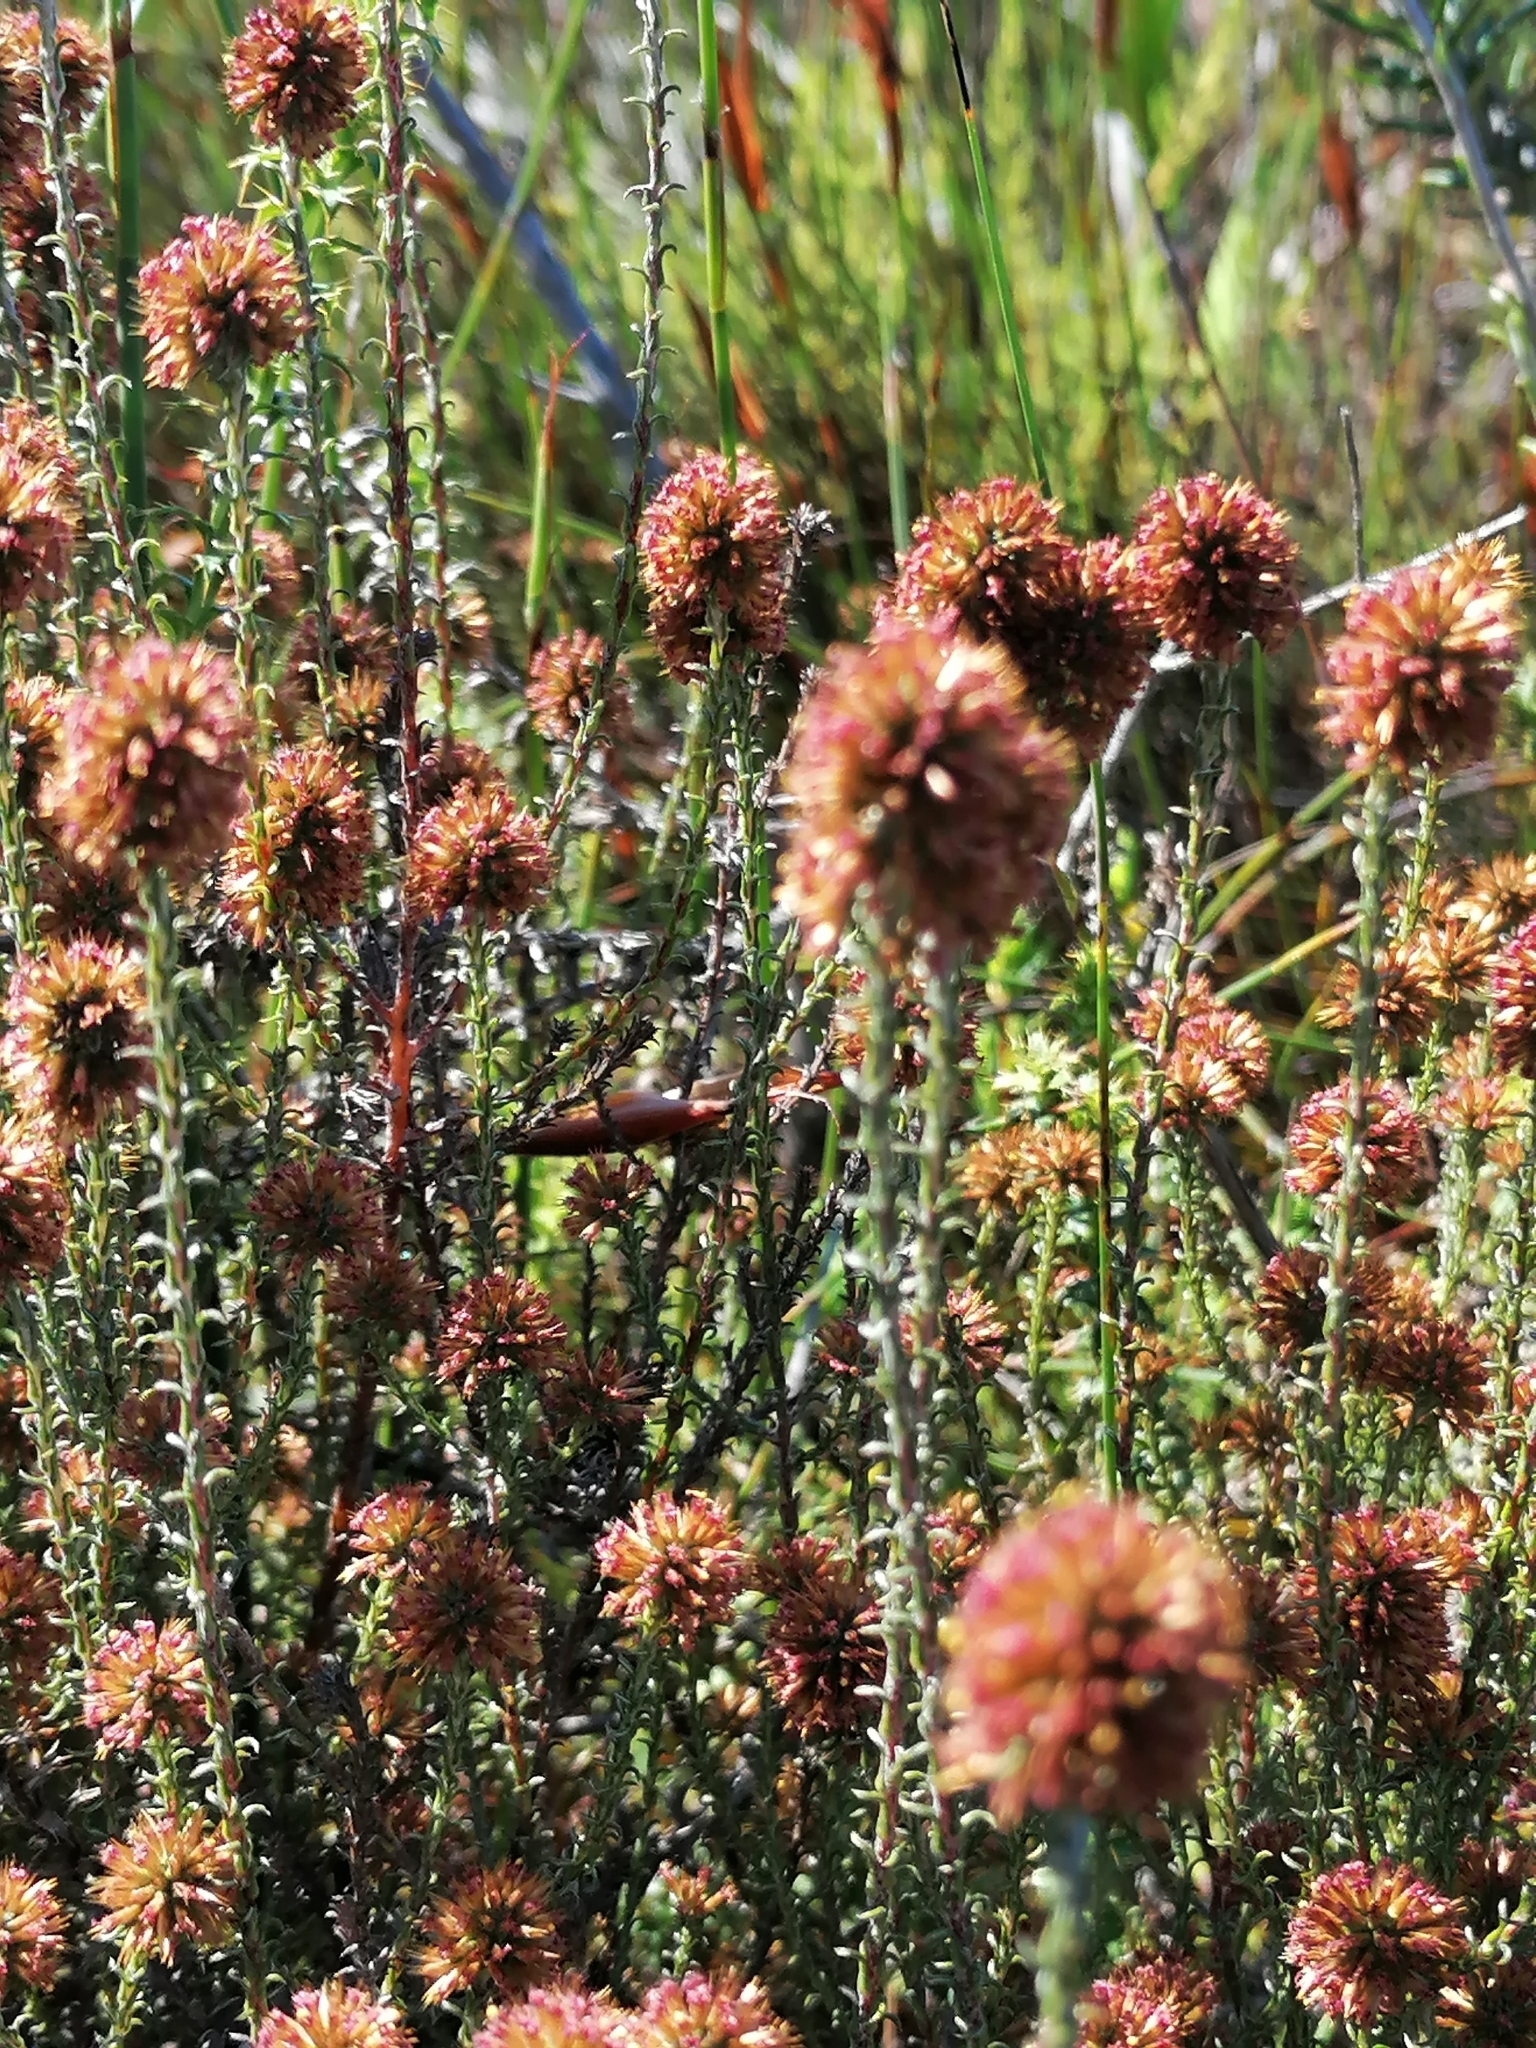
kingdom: Plantae
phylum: Tracheophyta
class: Magnoliopsida
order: Asterales
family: Asteraceae
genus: Seriphium
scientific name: Seriphium cinereum
